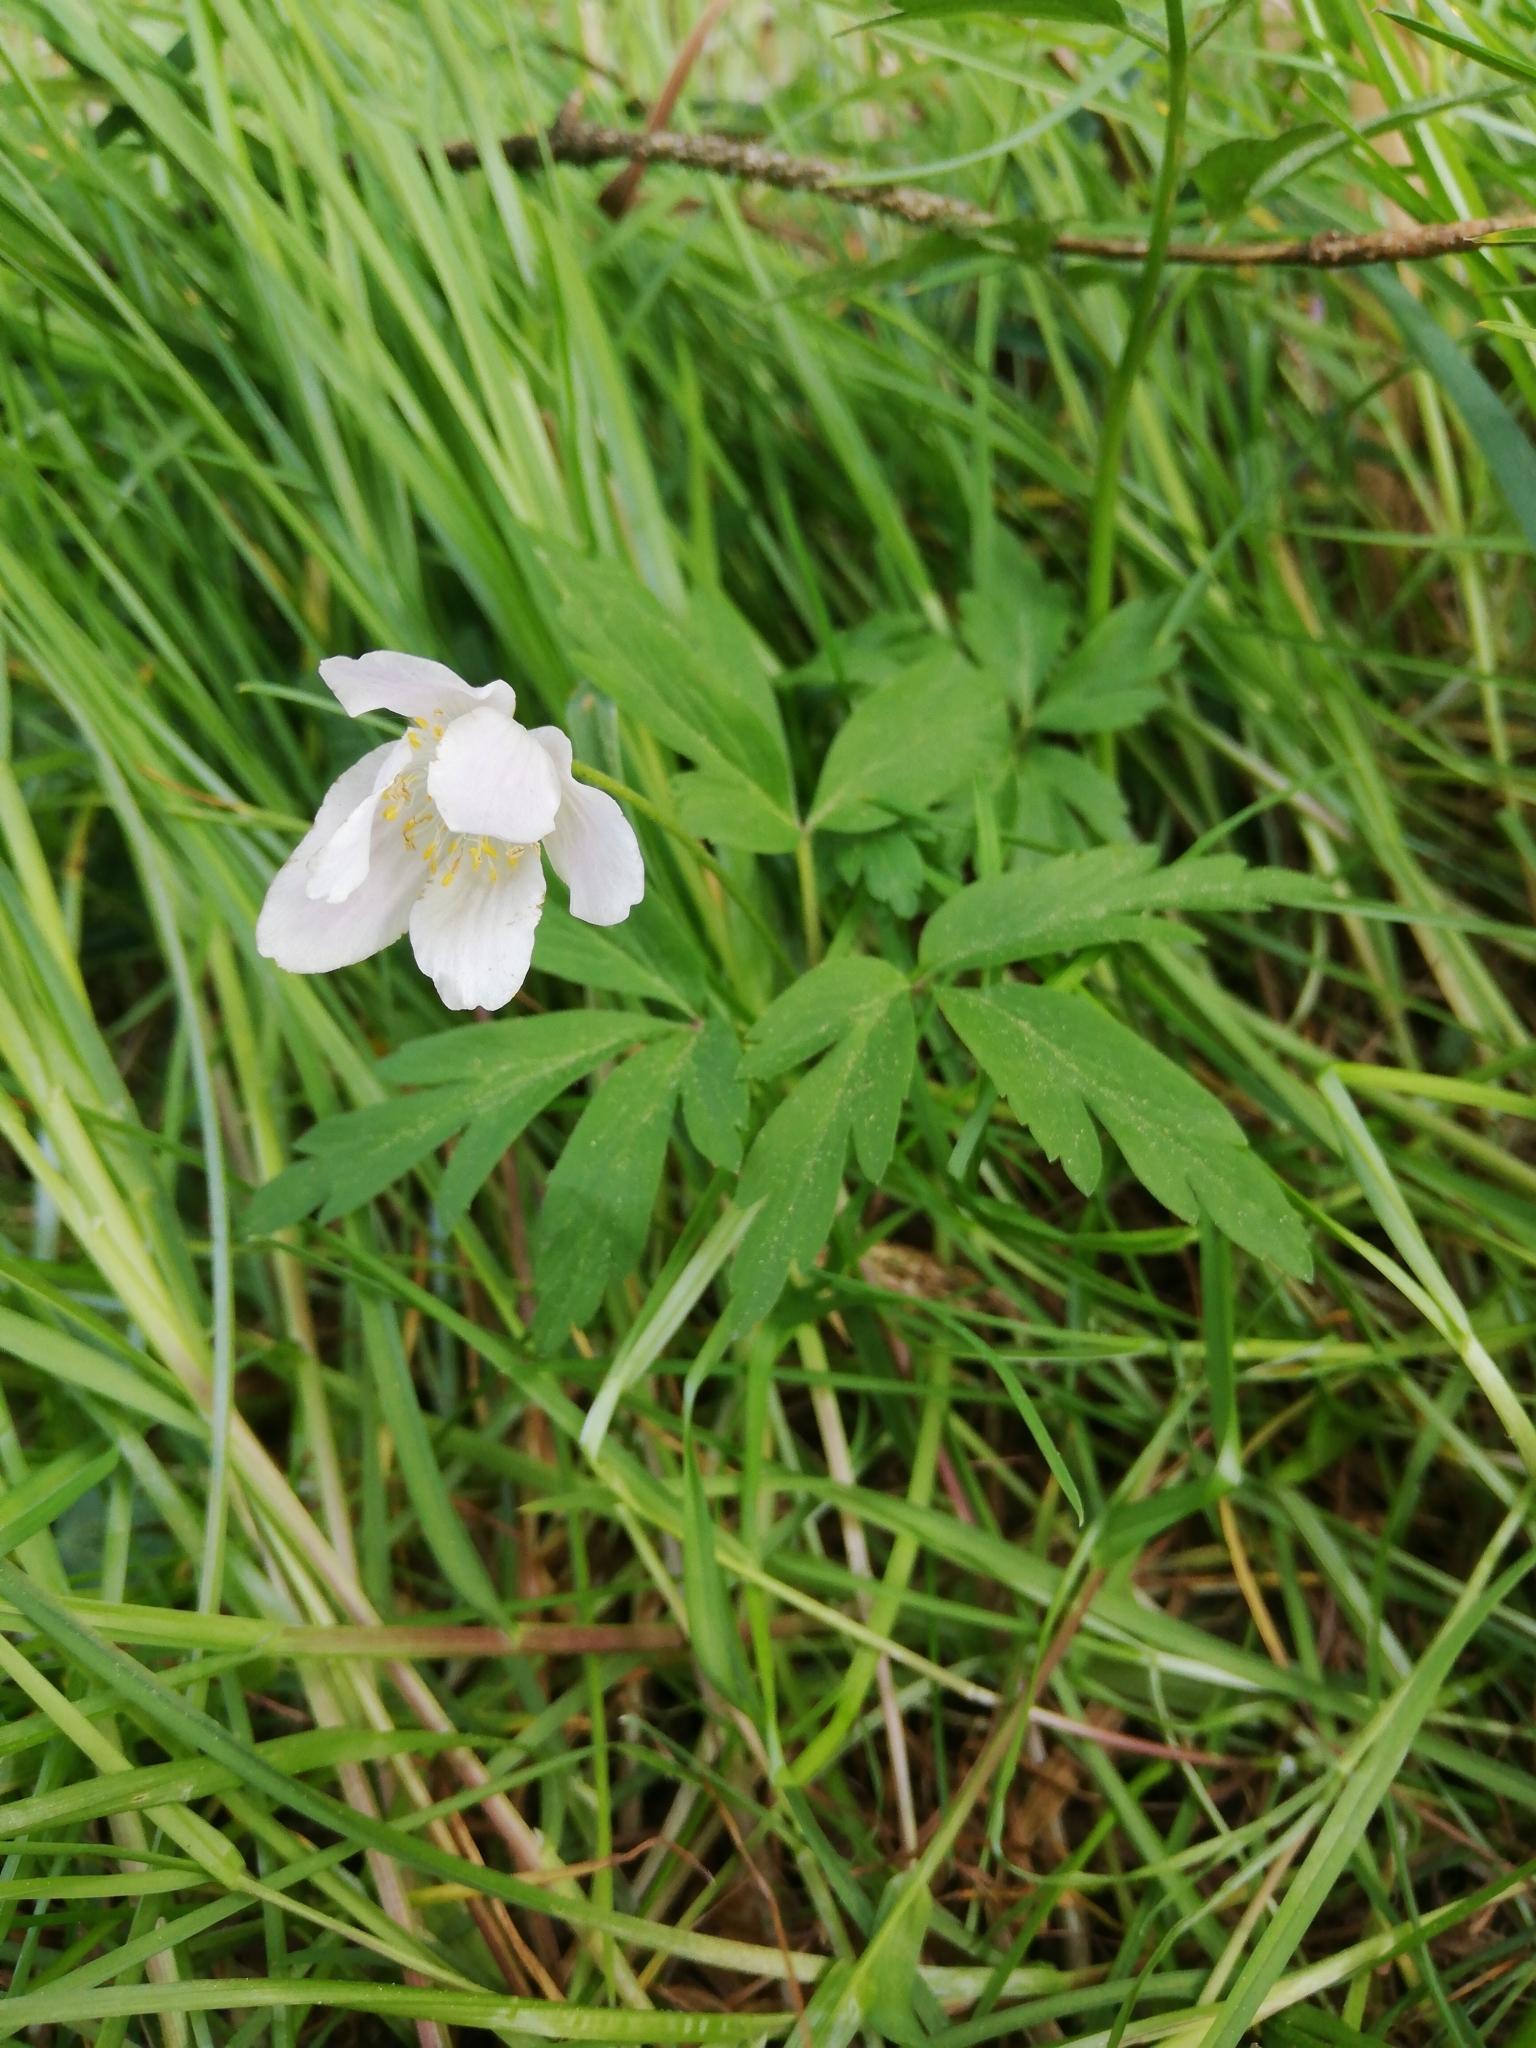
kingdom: Plantae
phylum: Tracheophyta
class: Magnoliopsida
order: Ranunculales
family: Ranunculaceae
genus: Anemone
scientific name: Anemone nemorosa
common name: Wood anemone
